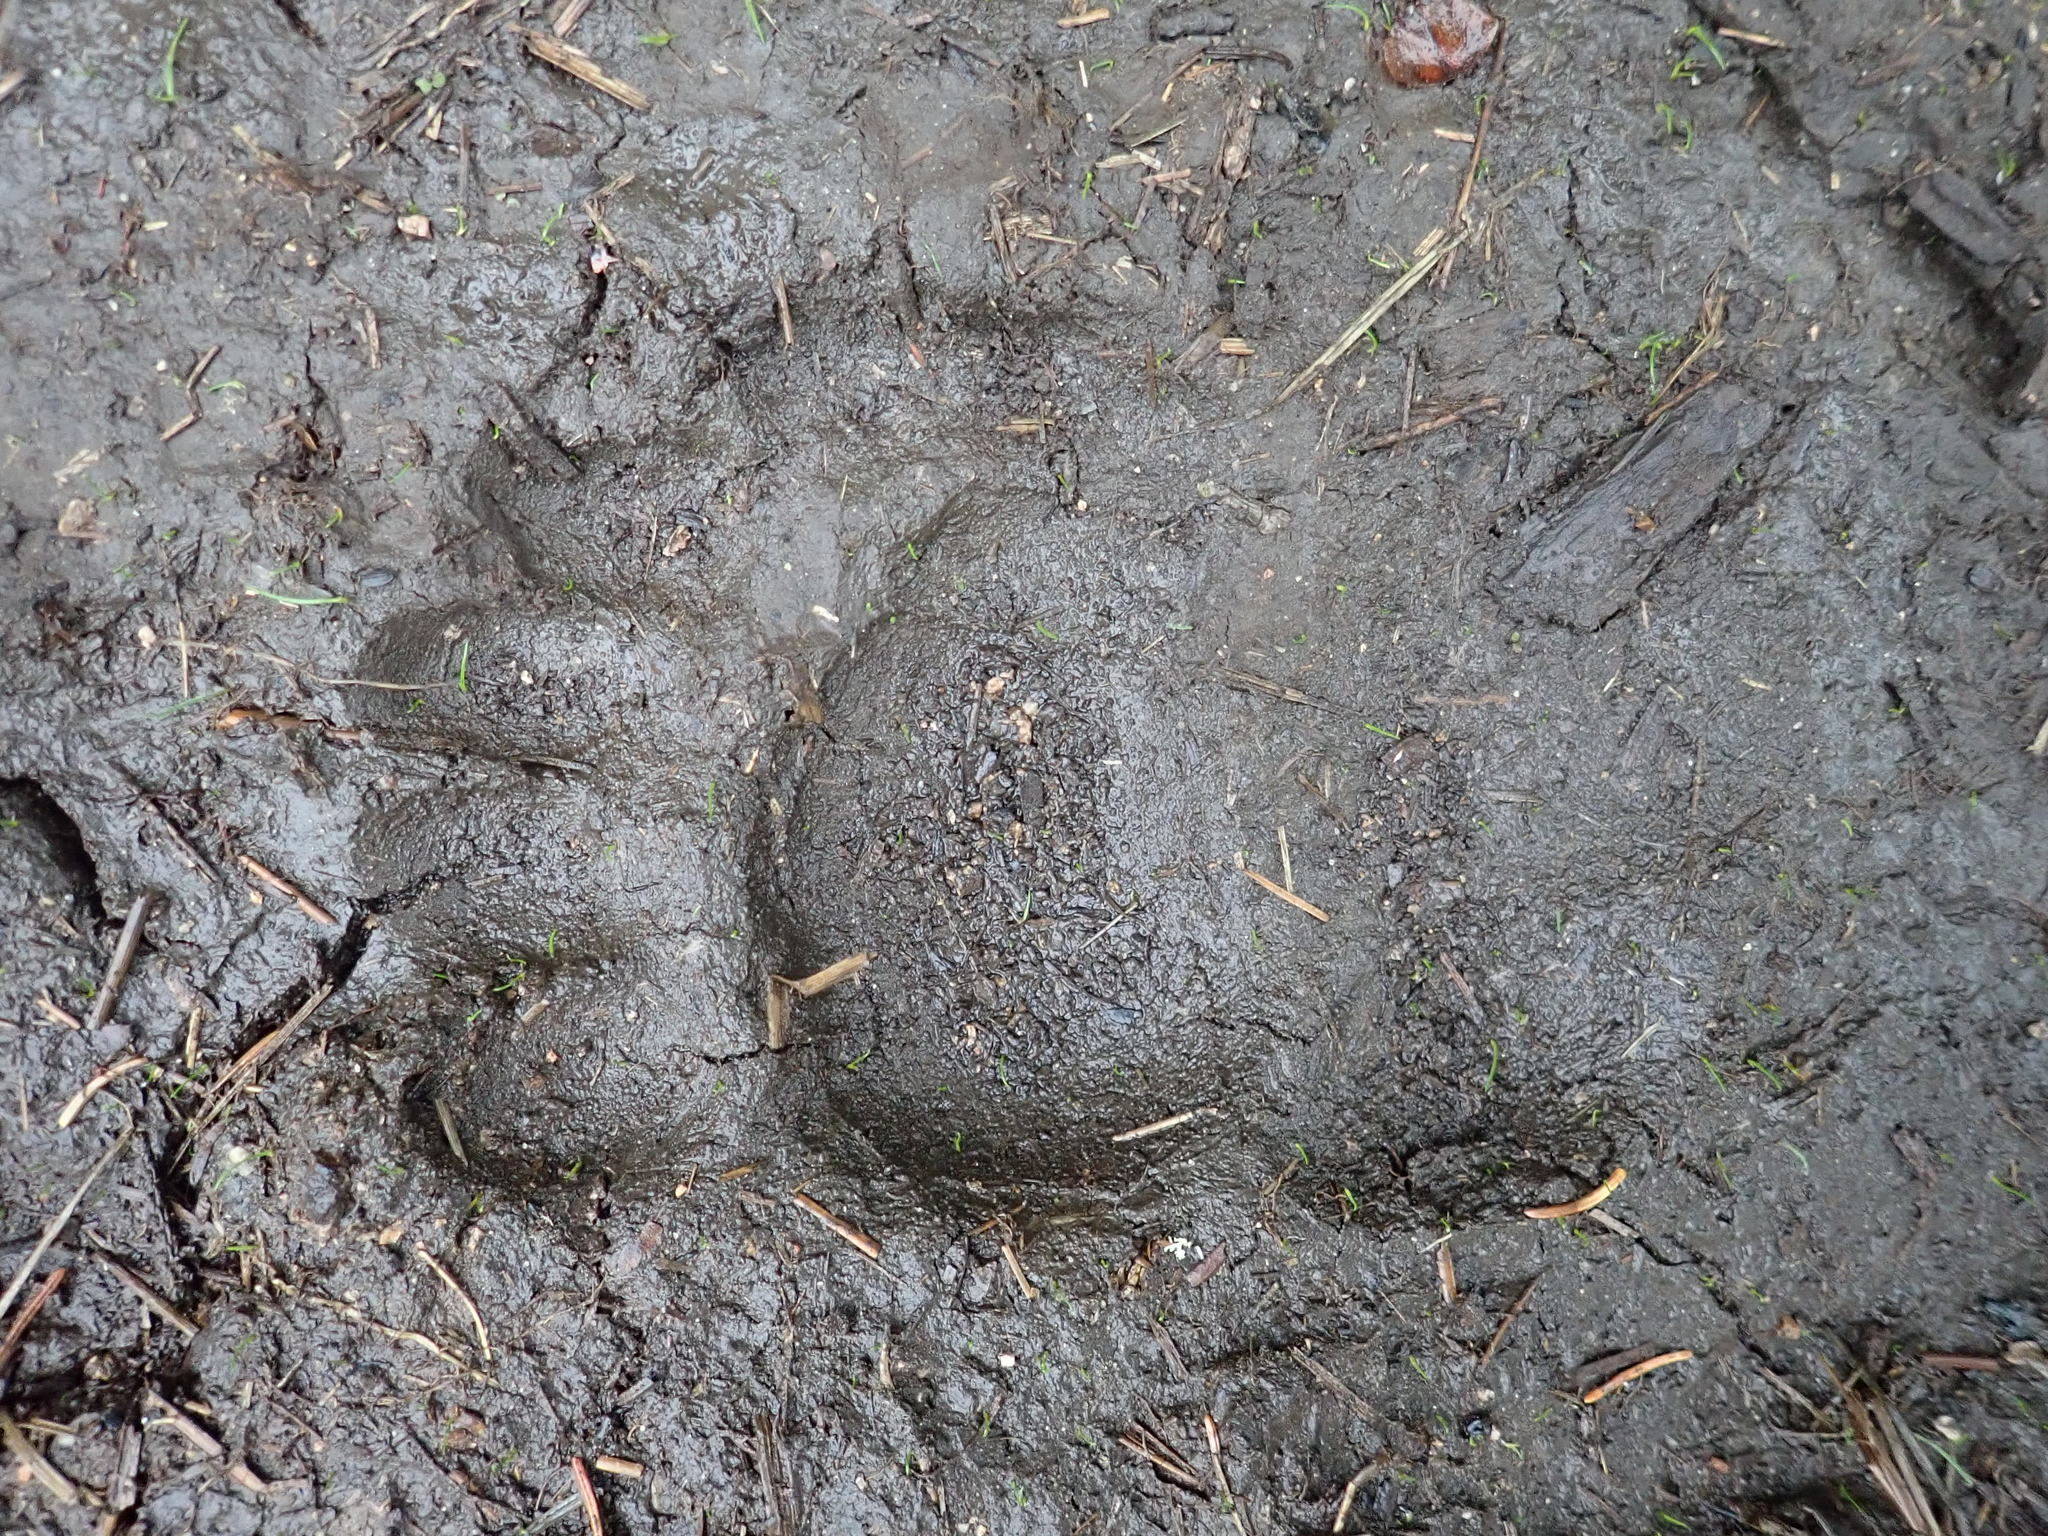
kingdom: Animalia
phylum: Chordata
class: Mammalia
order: Carnivora
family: Ursidae
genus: Ursus
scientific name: Ursus americanus
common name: American black bear
